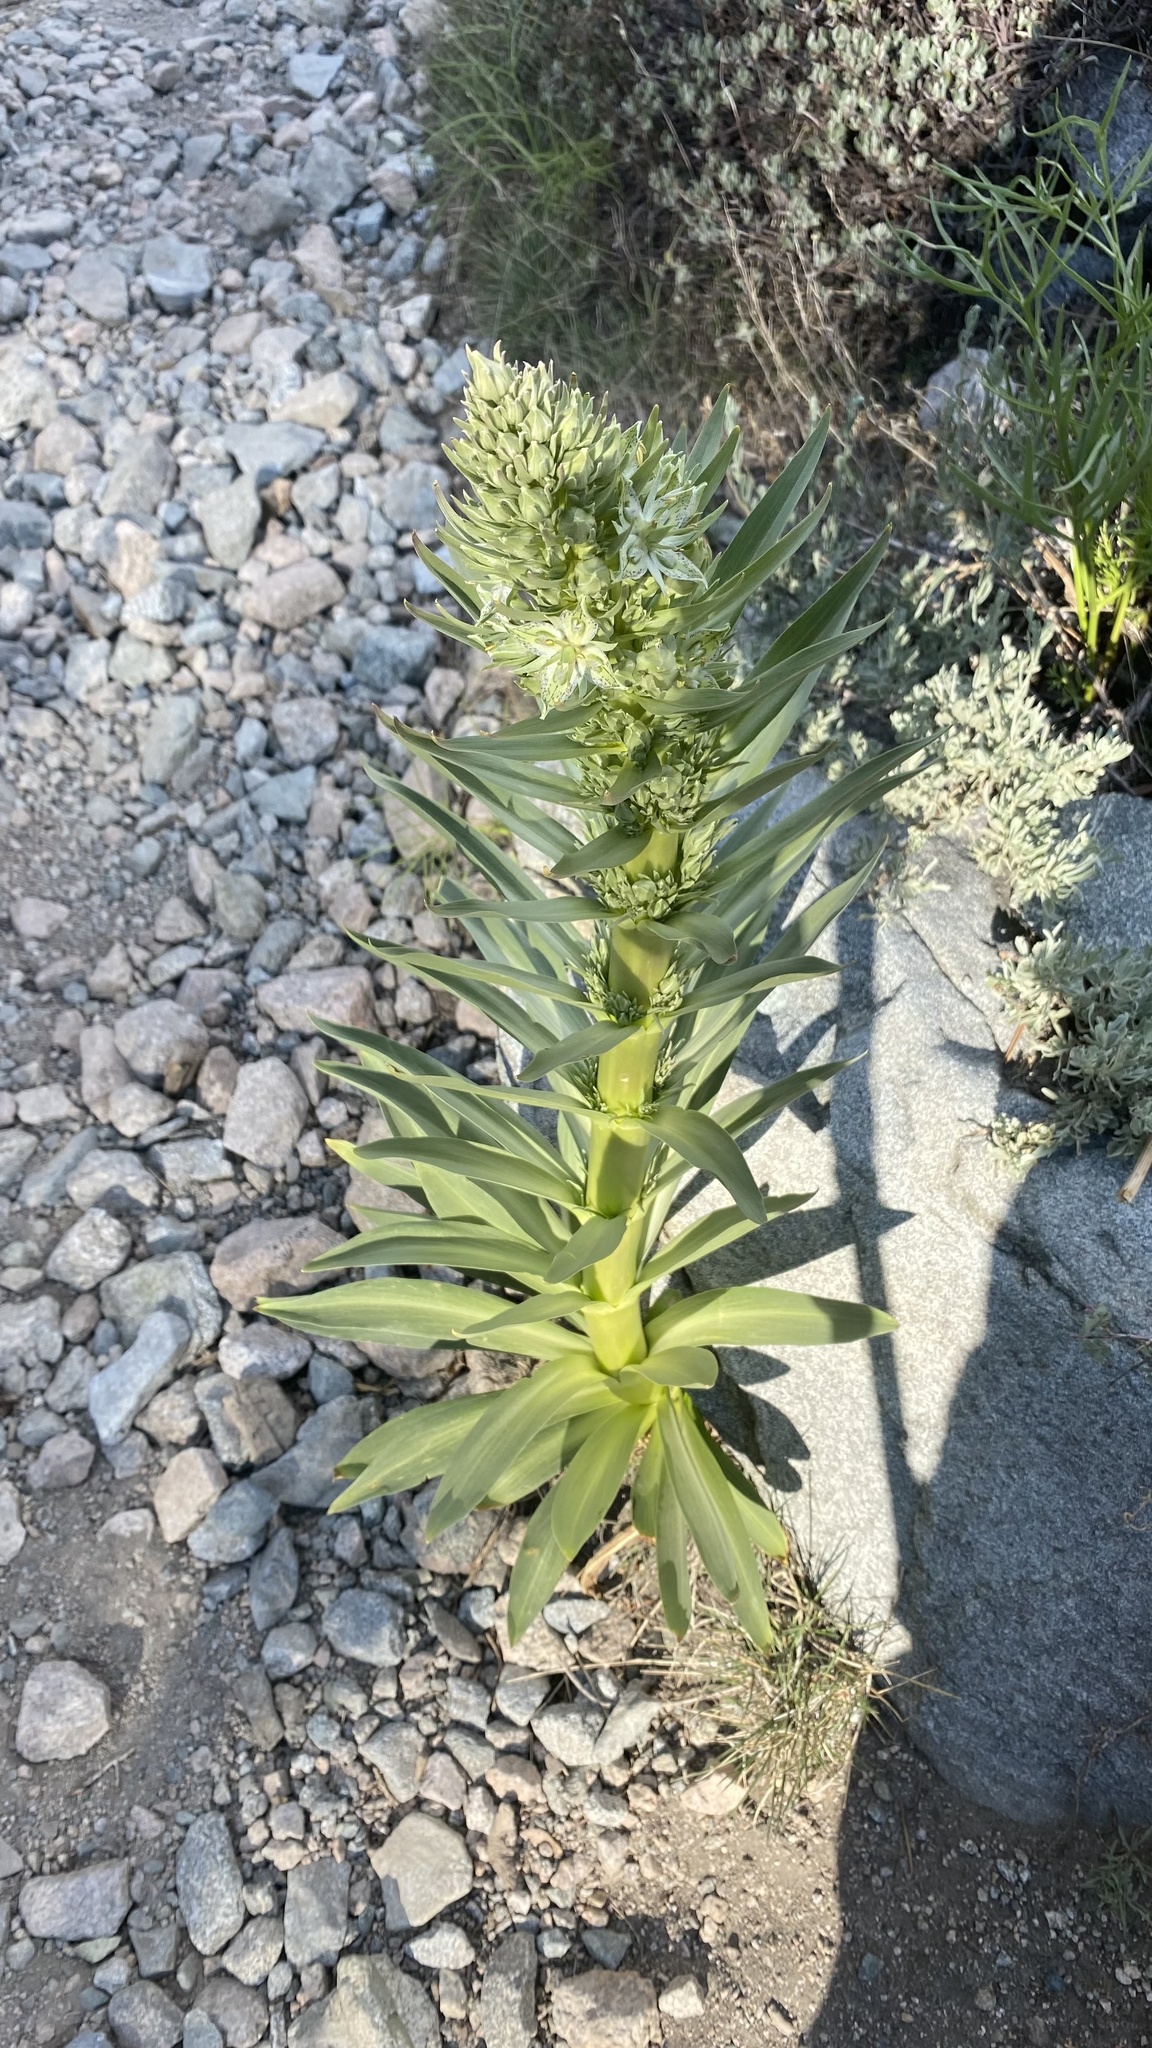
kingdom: Plantae
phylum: Tracheophyta
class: Magnoliopsida
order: Gentianales
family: Gentianaceae
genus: Frasera
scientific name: Frasera speciosa
